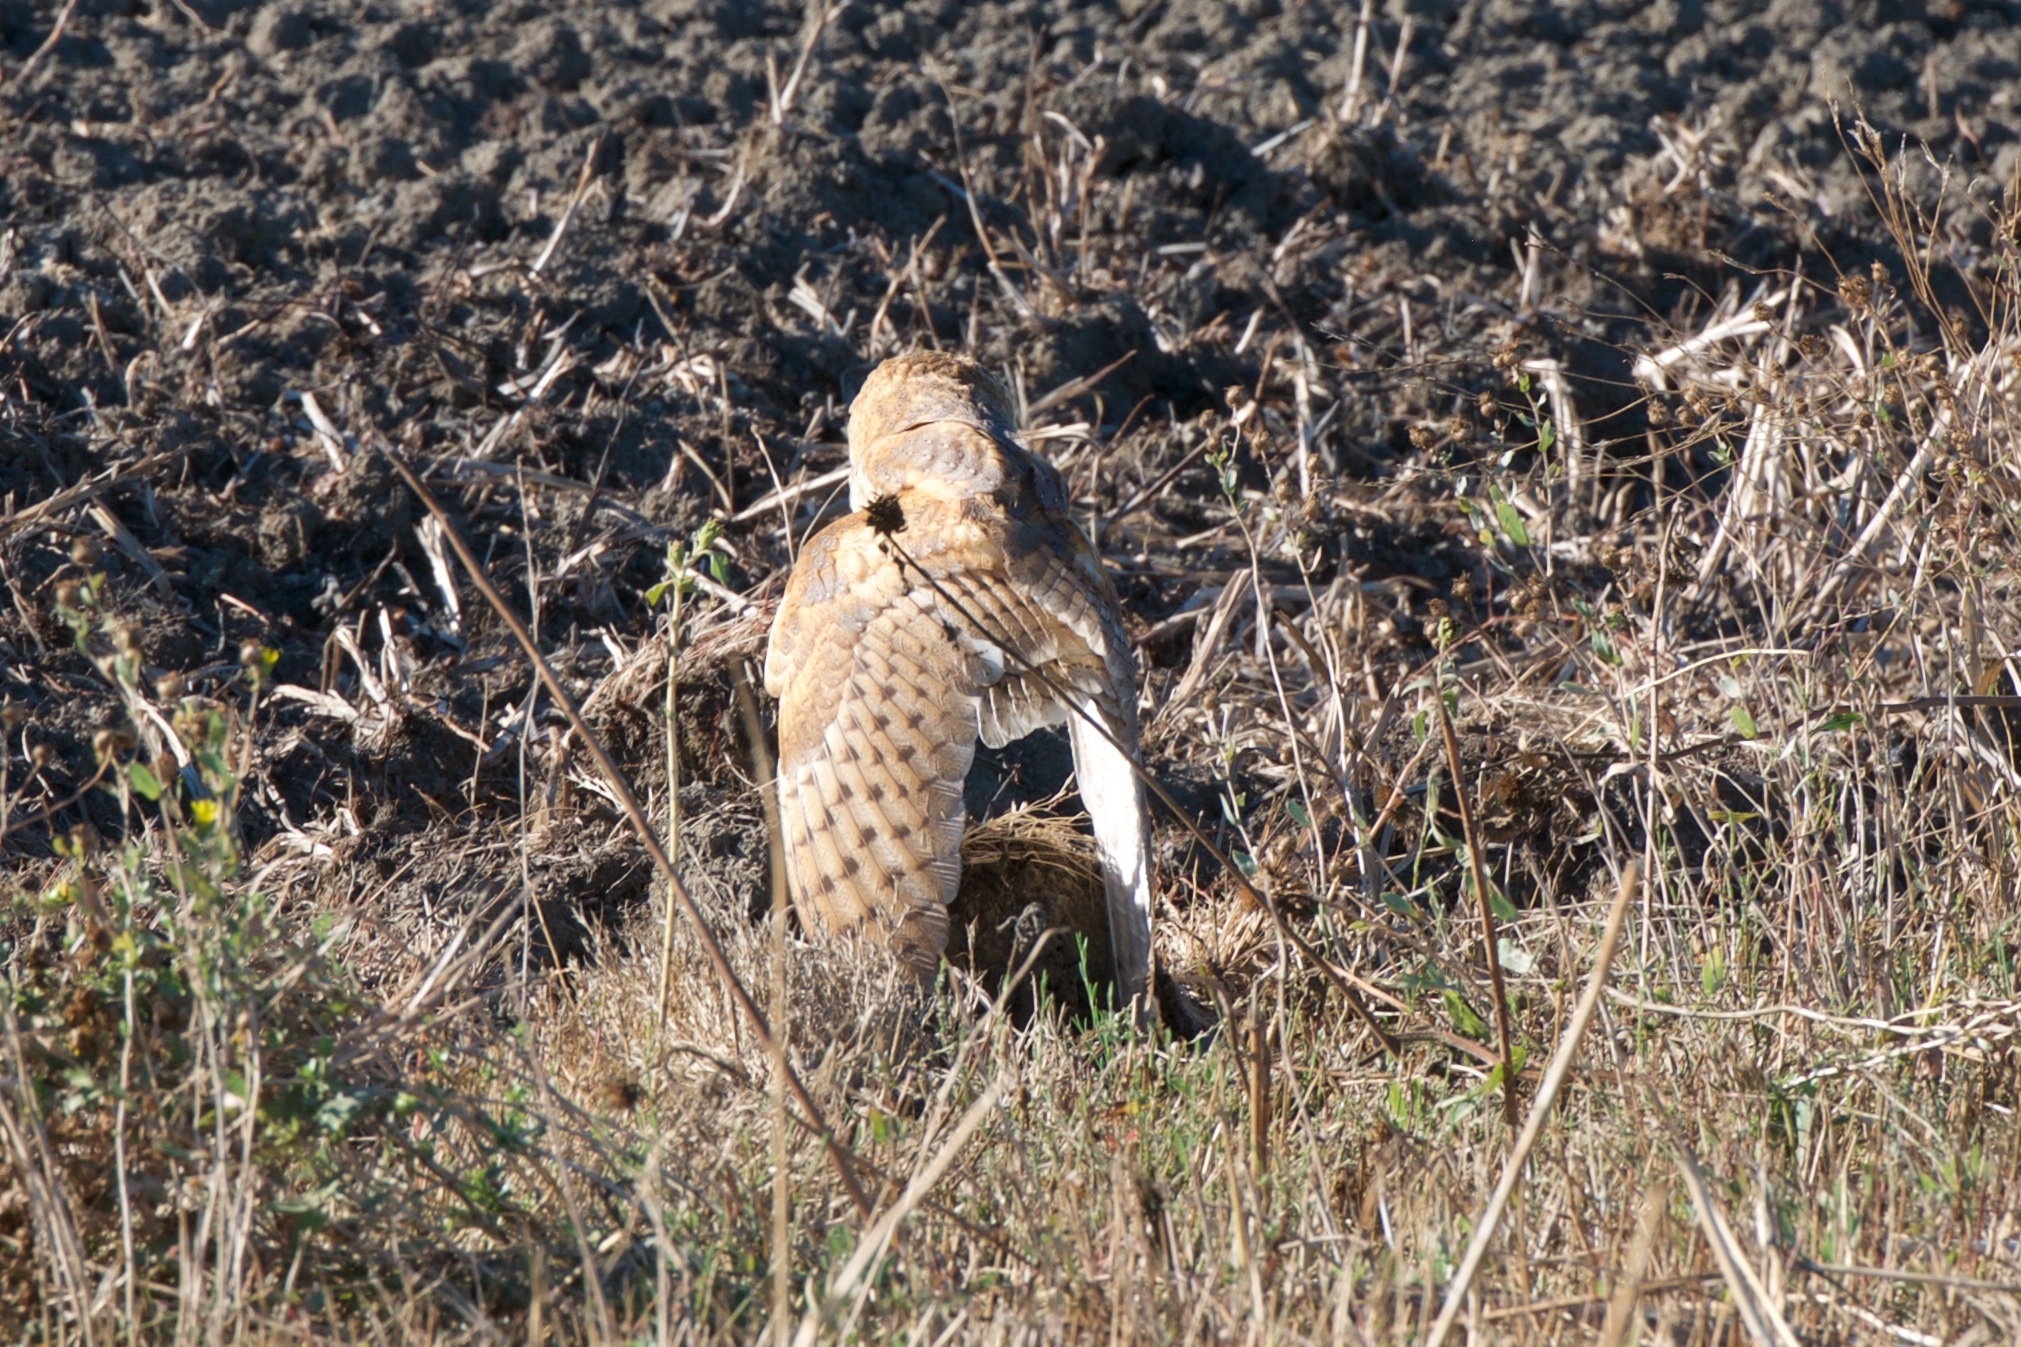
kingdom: Animalia
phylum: Chordata
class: Aves
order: Strigiformes
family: Tytonidae
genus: Tyto
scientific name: Tyto alba
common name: Barn owl
